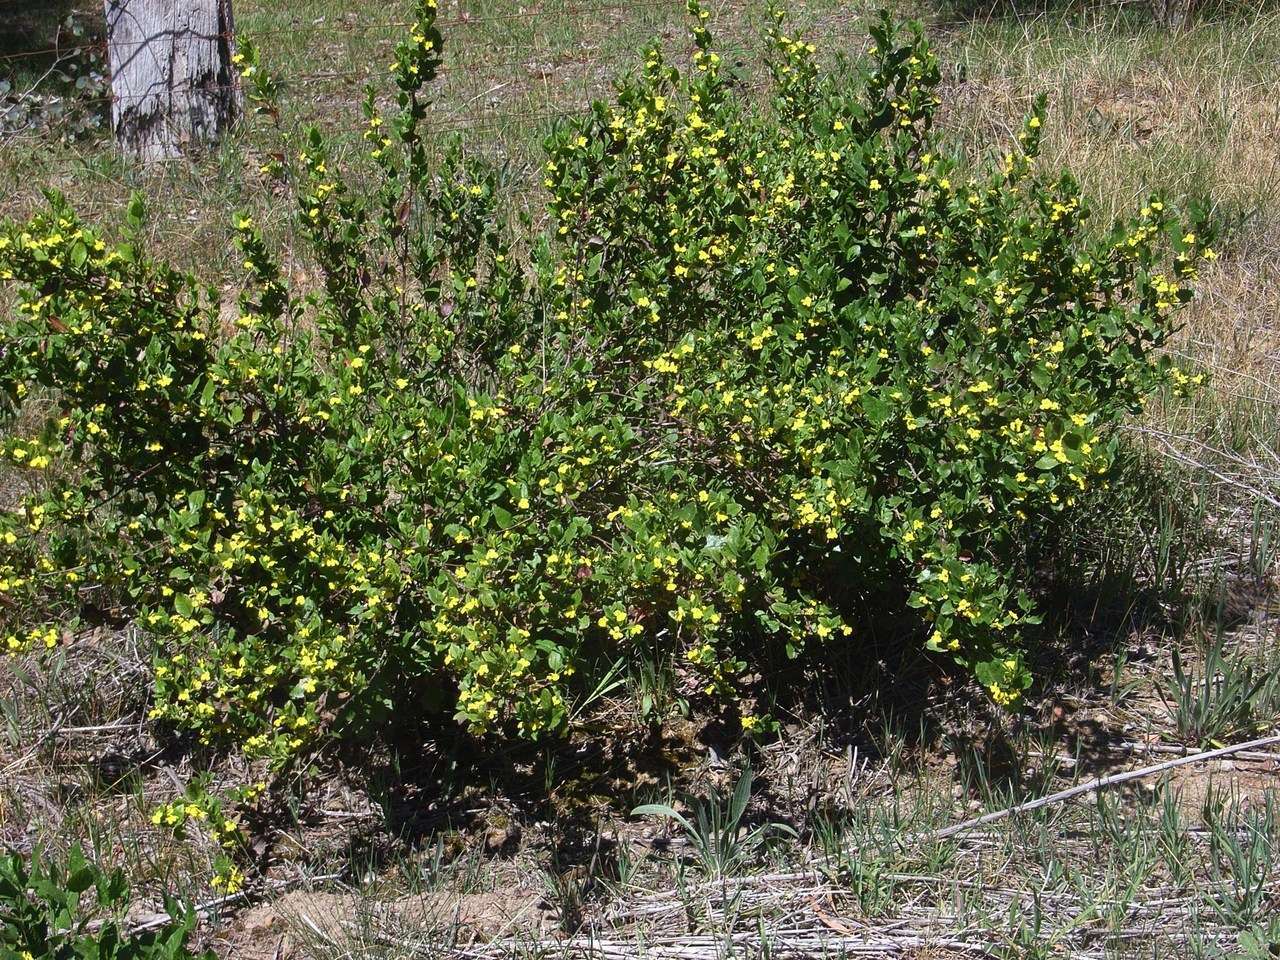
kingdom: Plantae
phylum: Tracheophyta
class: Magnoliopsida
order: Asterales
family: Goodeniaceae
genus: Goodenia
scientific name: Goodenia ovata
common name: Hop goodenia
